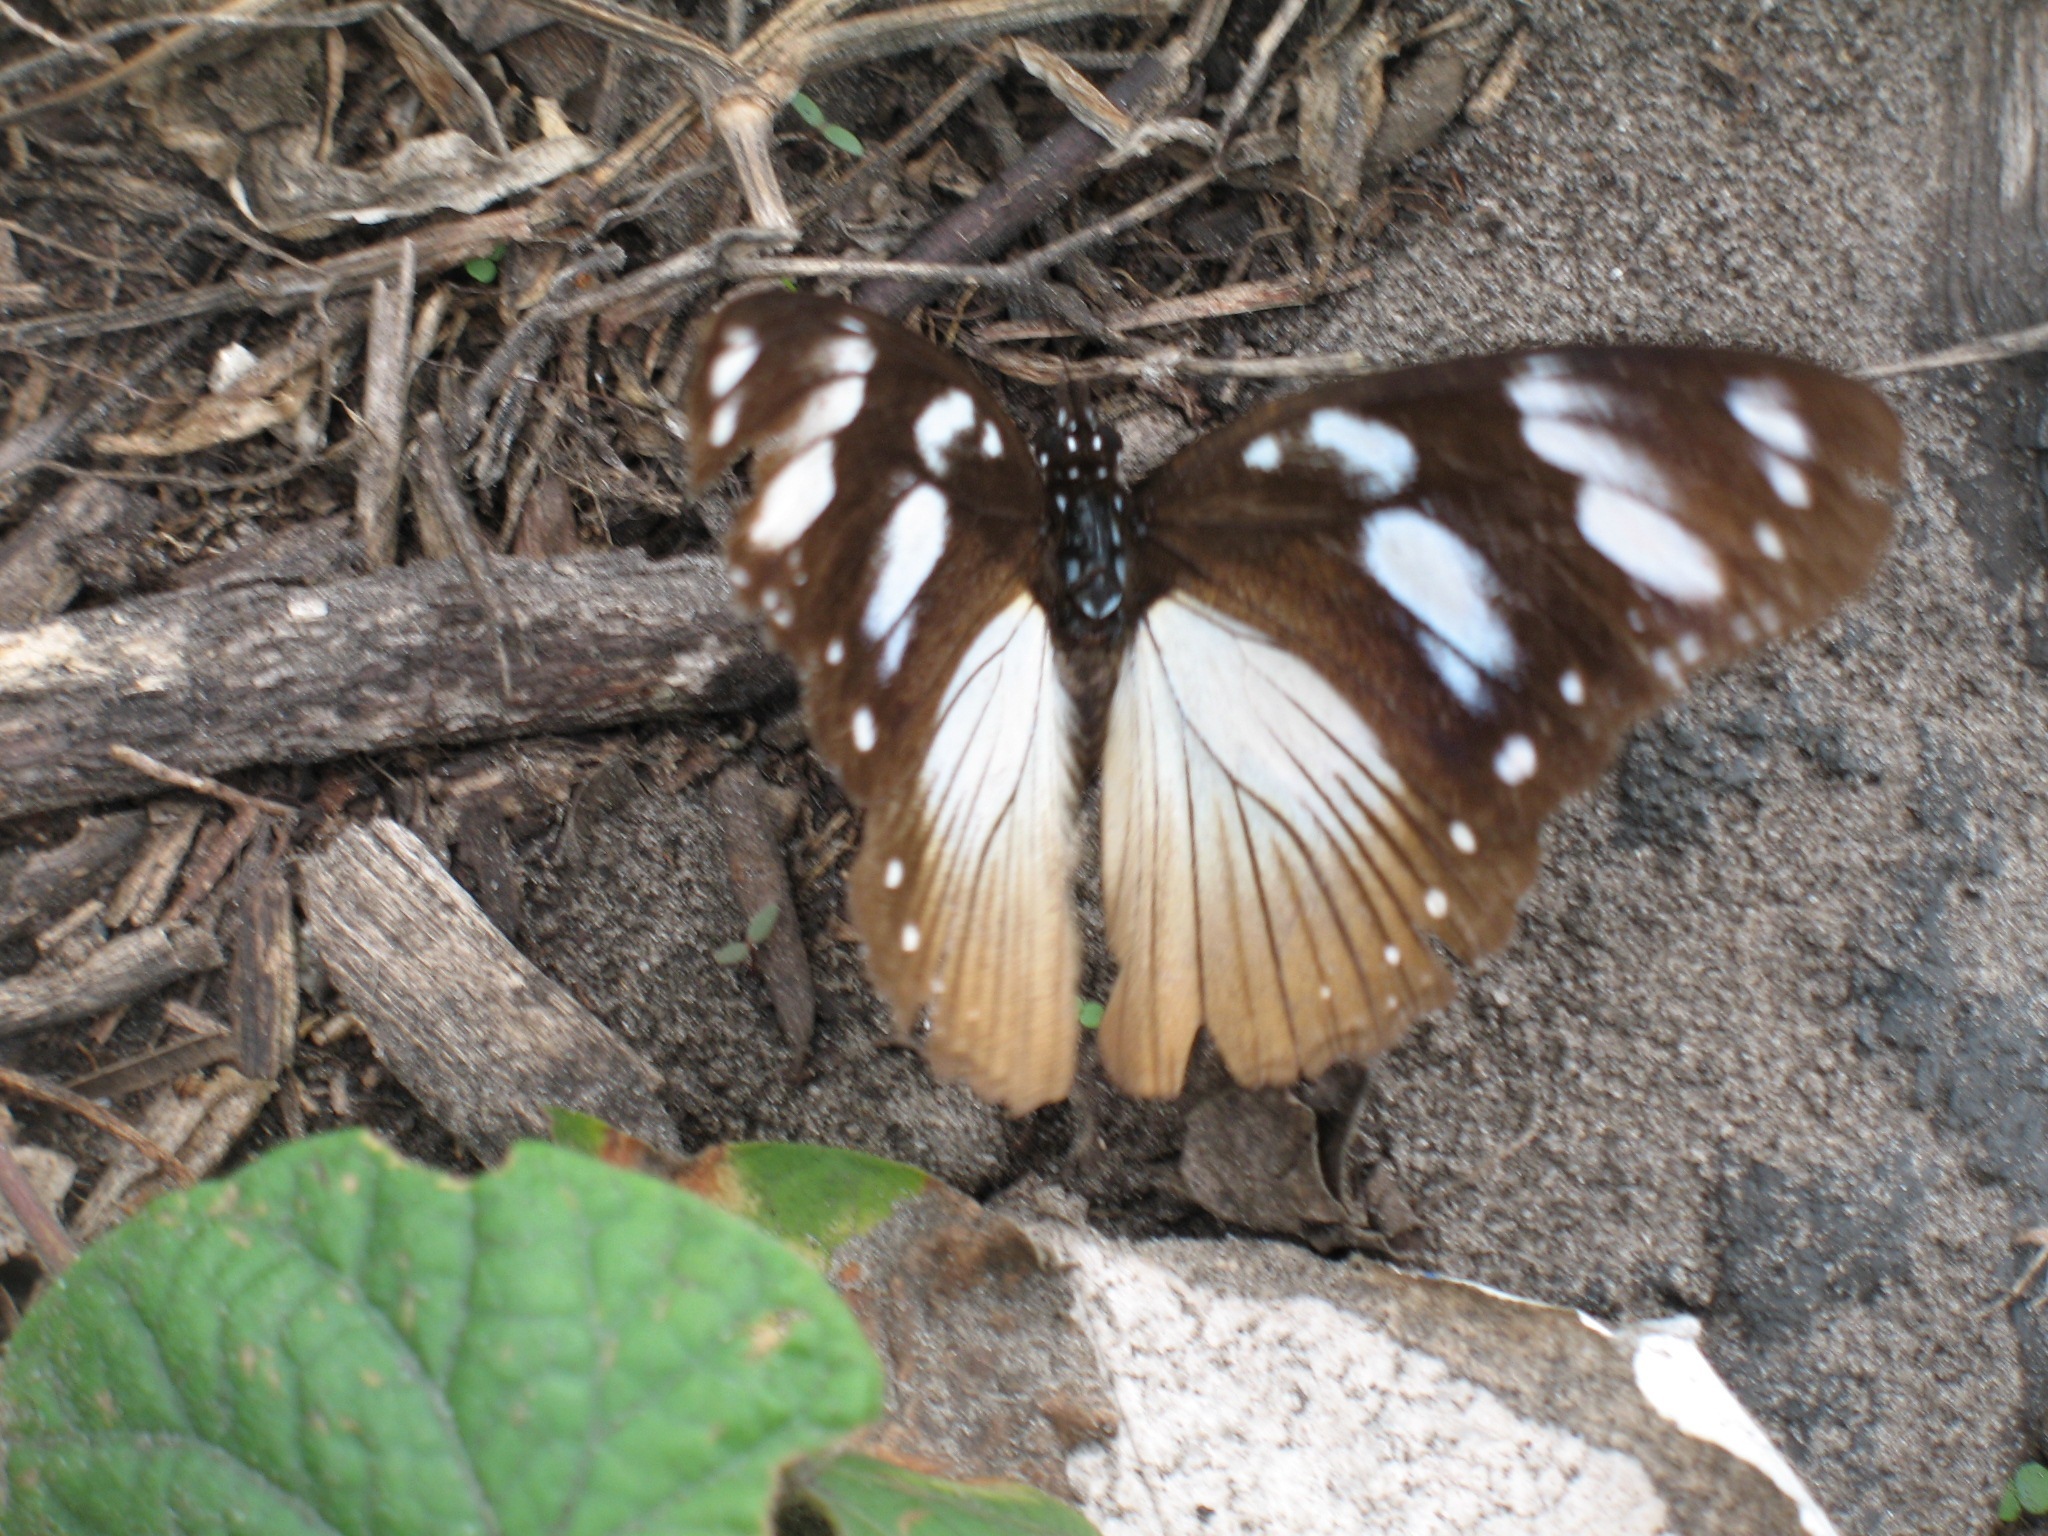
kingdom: Animalia
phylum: Arthropoda
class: Insecta
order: Lepidoptera
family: Nymphalidae
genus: Hypolimnas
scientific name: Hypolimnas dubius
